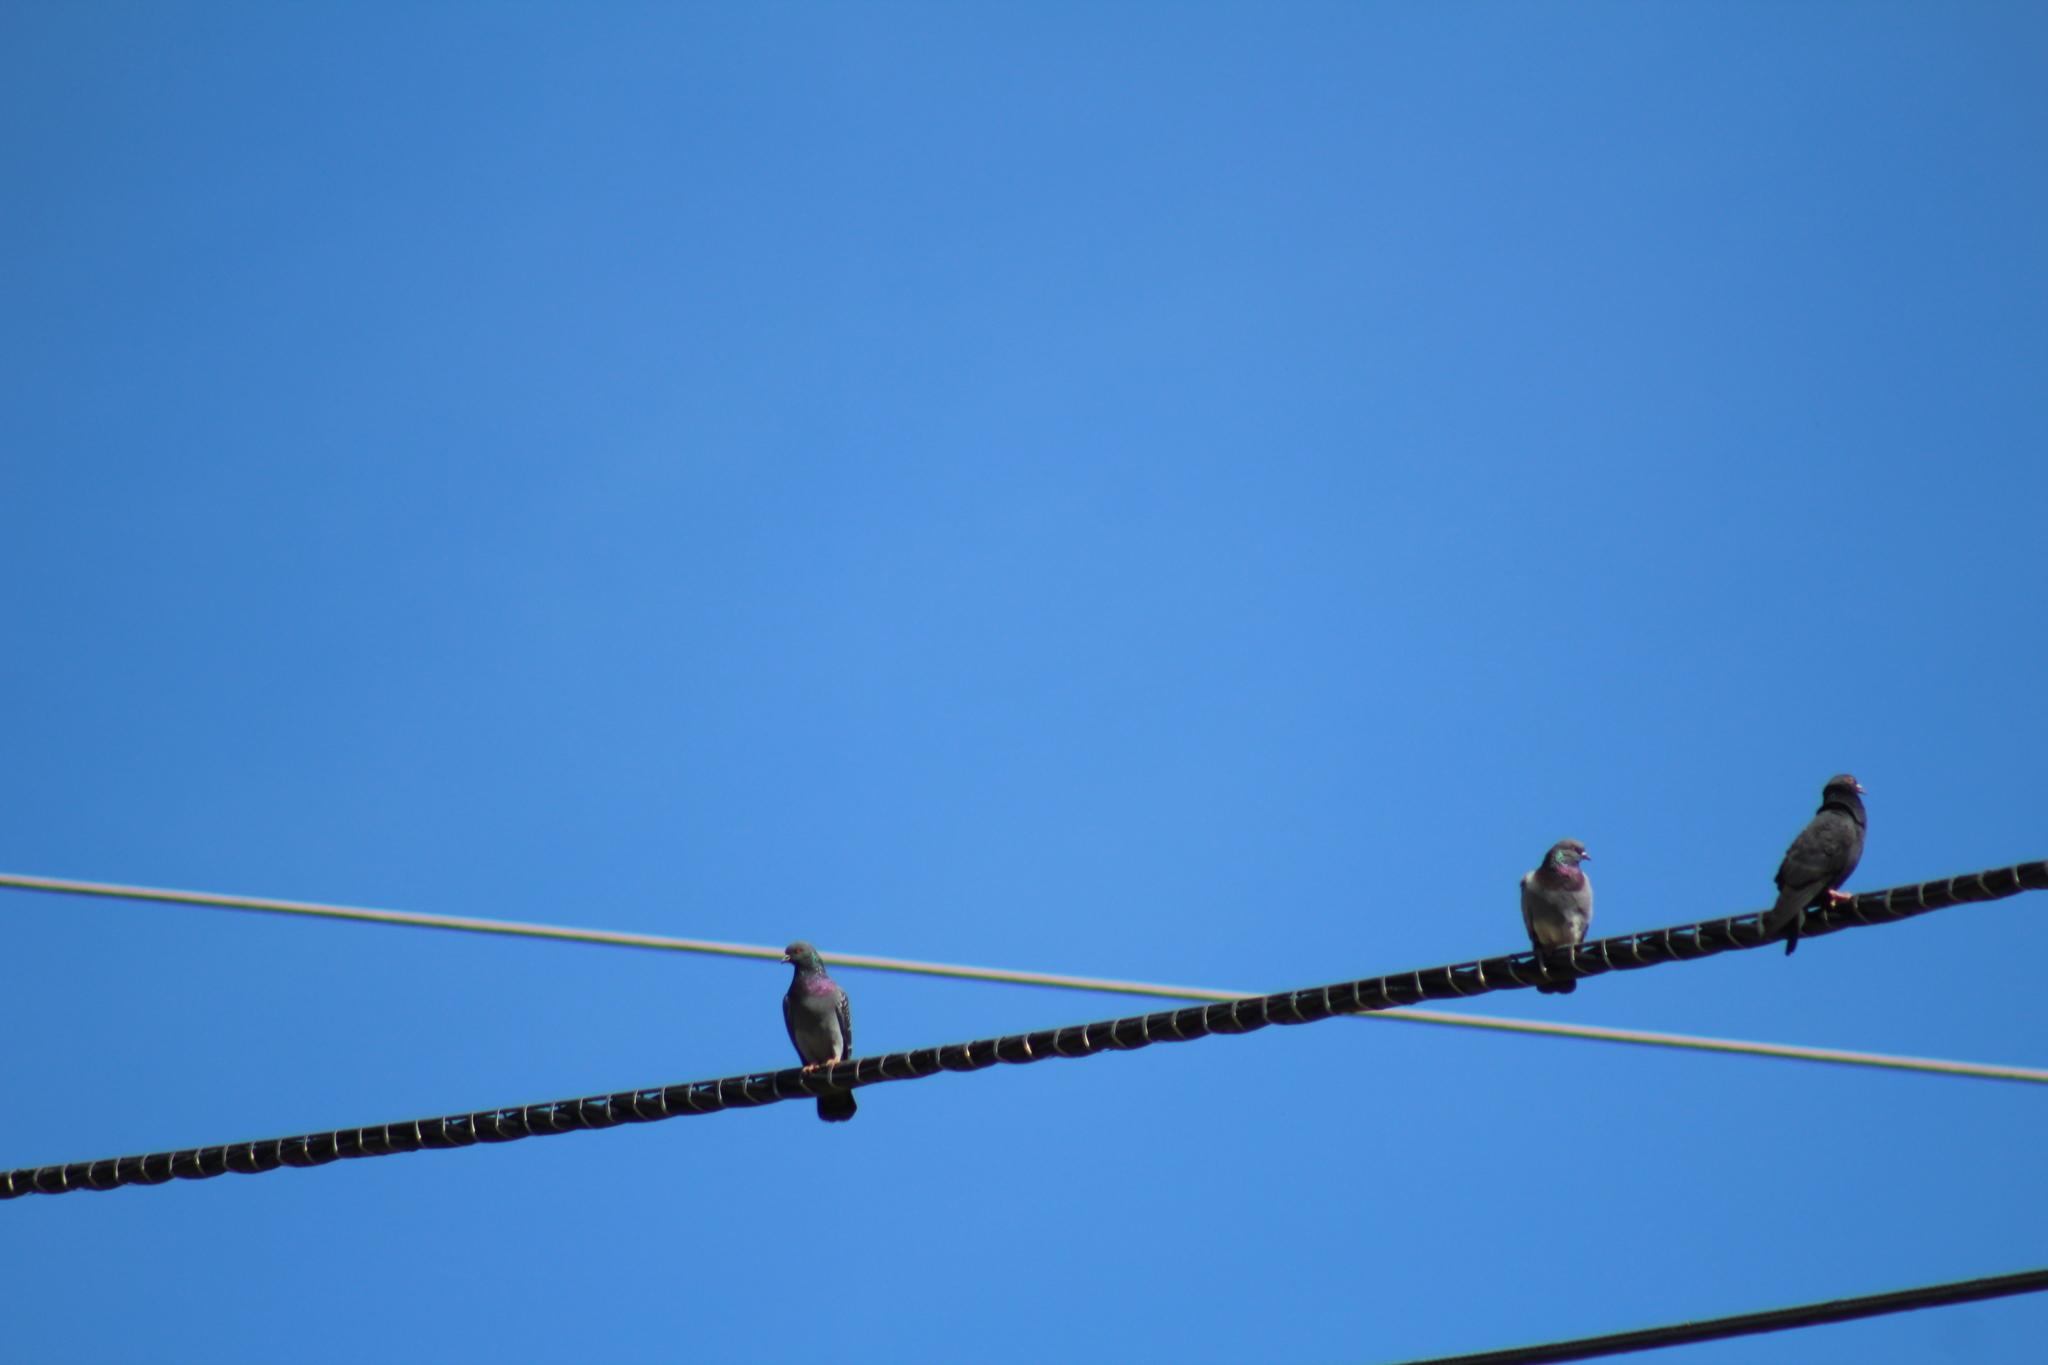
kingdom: Animalia
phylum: Chordata
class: Aves
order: Columbiformes
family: Columbidae
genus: Columba
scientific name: Columba livia
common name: Rock pigeon
